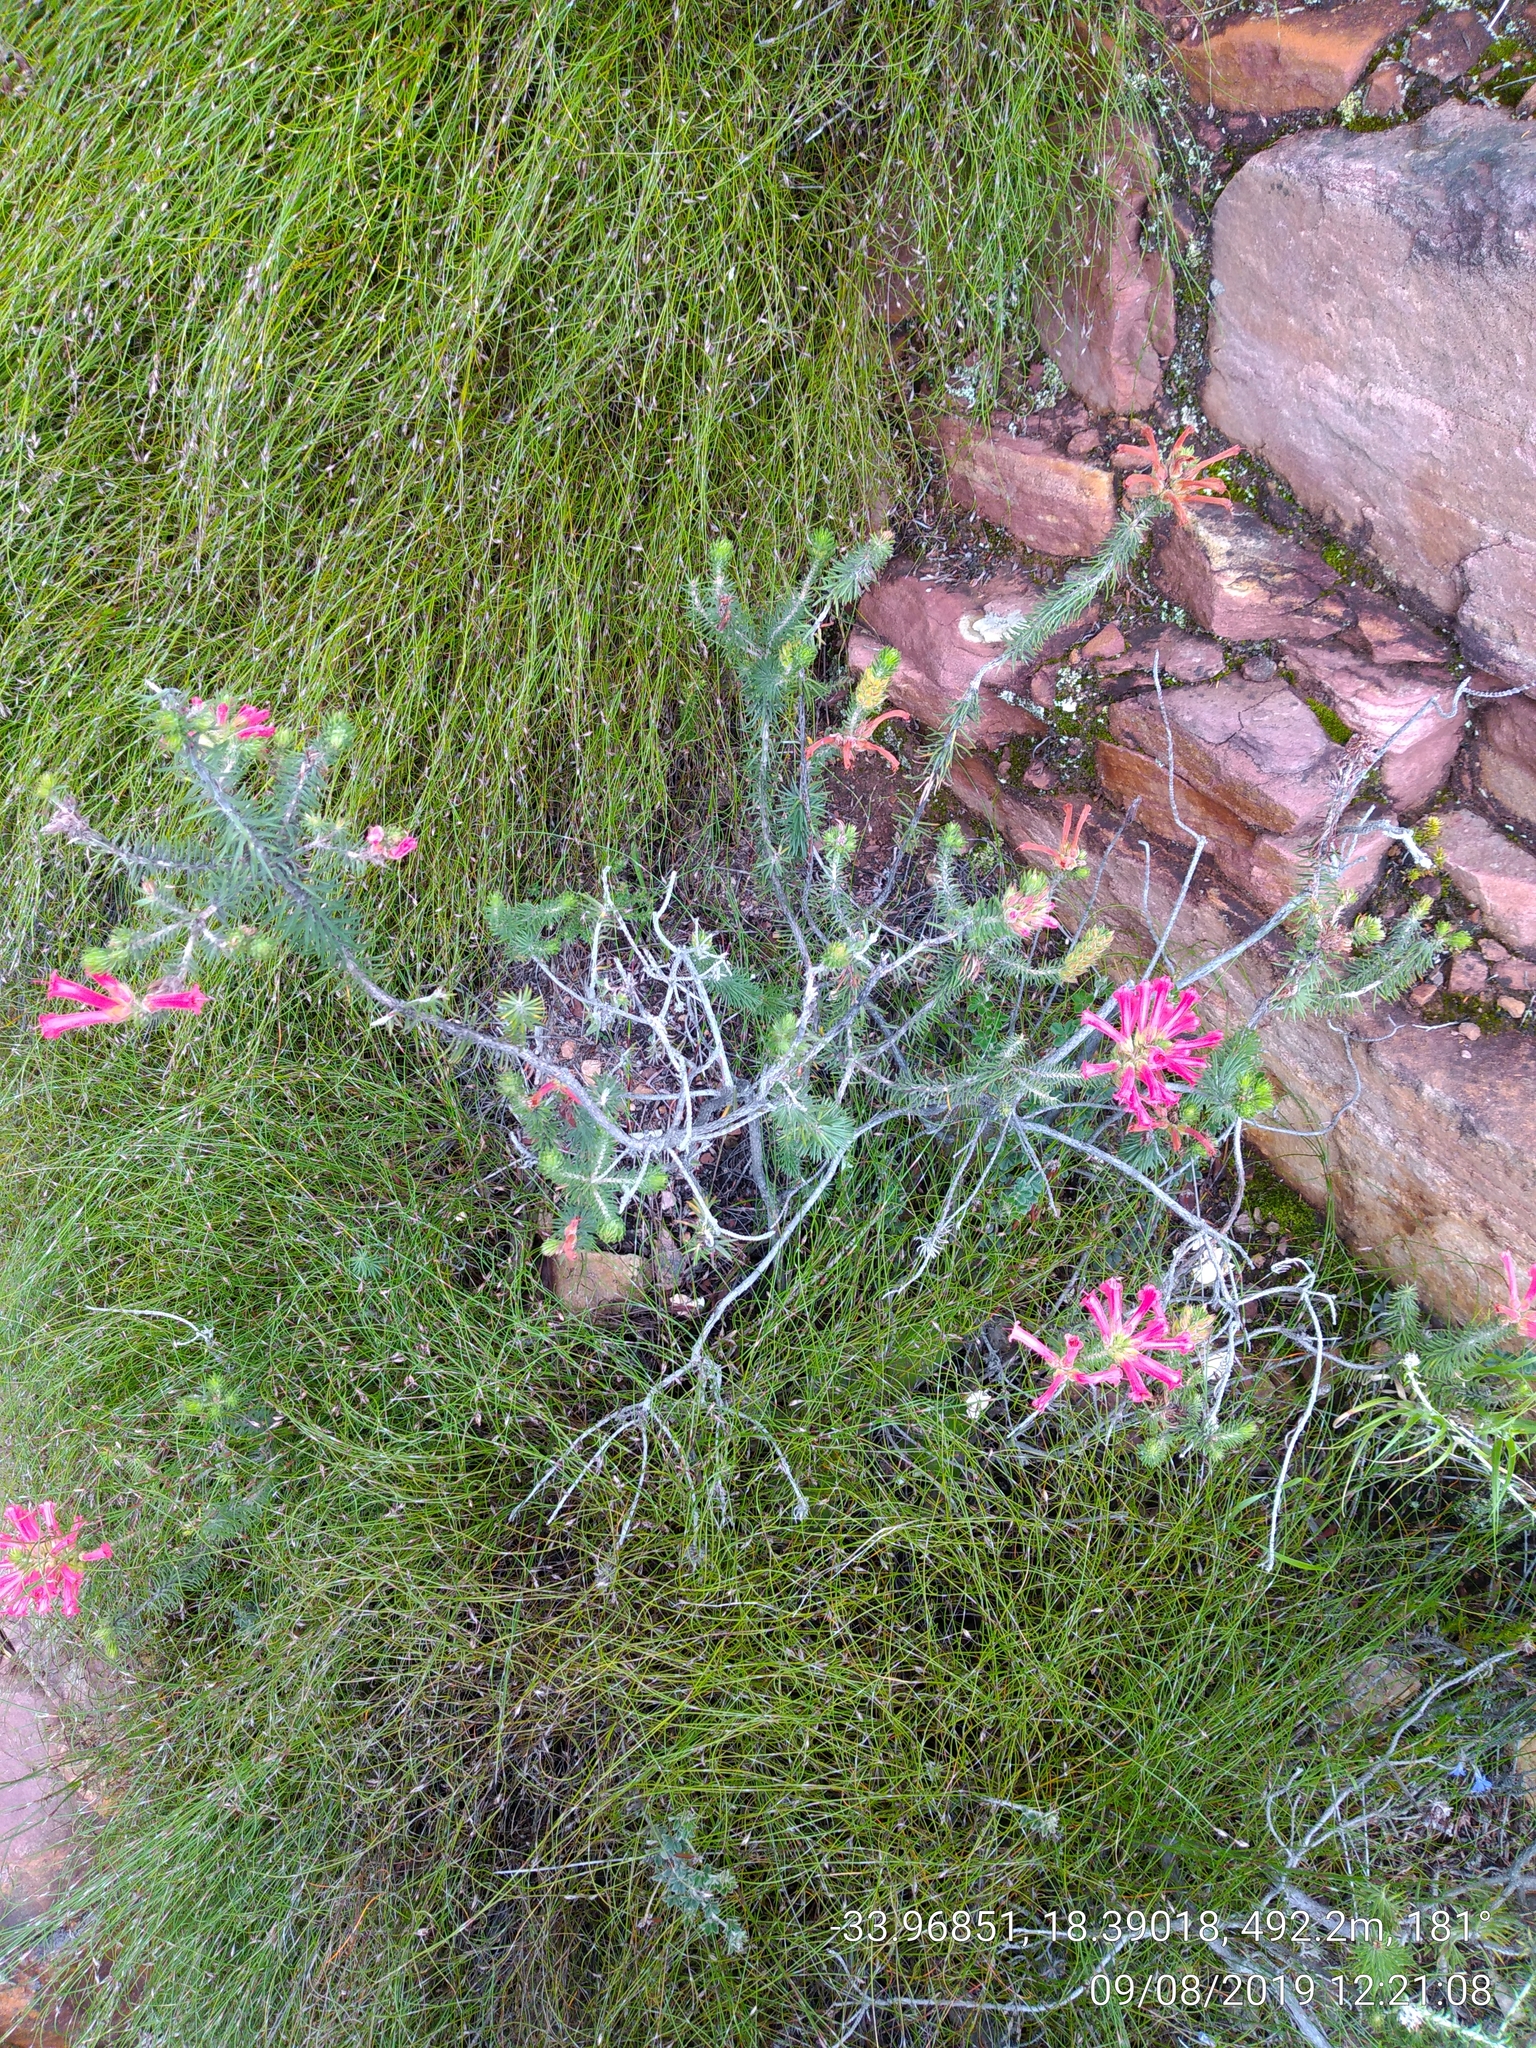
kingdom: Plantae
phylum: Tracheophyta
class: Magnoliopsida
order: Ericales
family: Ericaceae
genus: Erica
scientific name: Erica abietina
